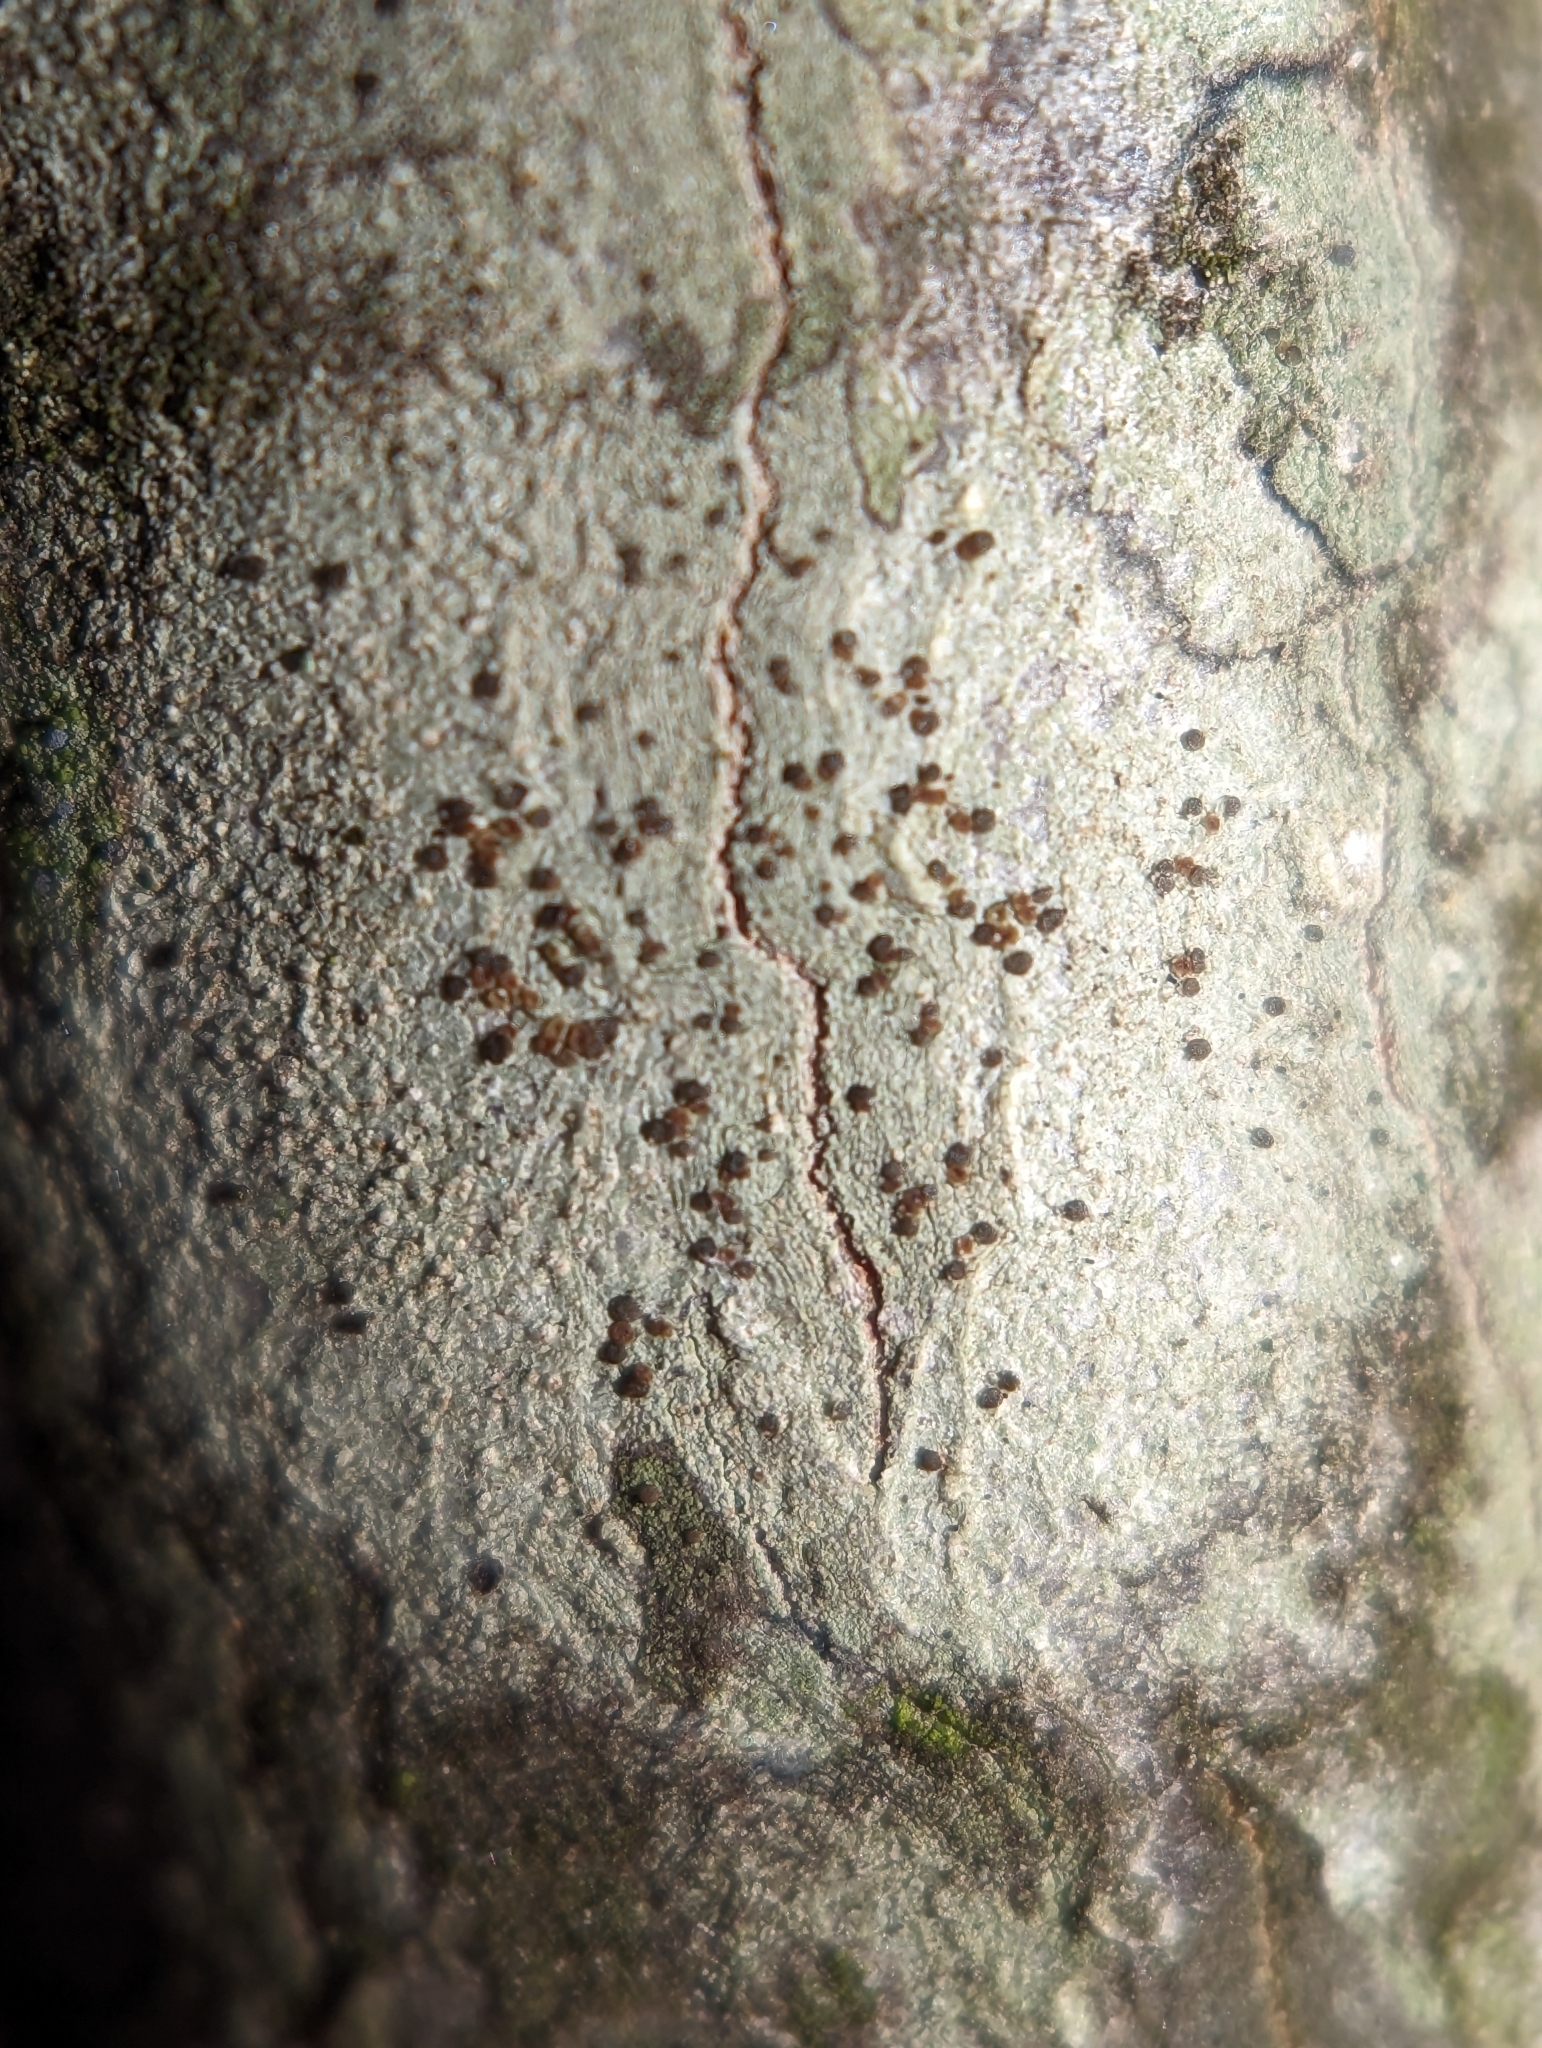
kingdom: Fungi
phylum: Ascomycota
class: Lecanoromycetes
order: Lecanorales
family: Lecanoraceae
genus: Traponora
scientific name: Traponora varians
